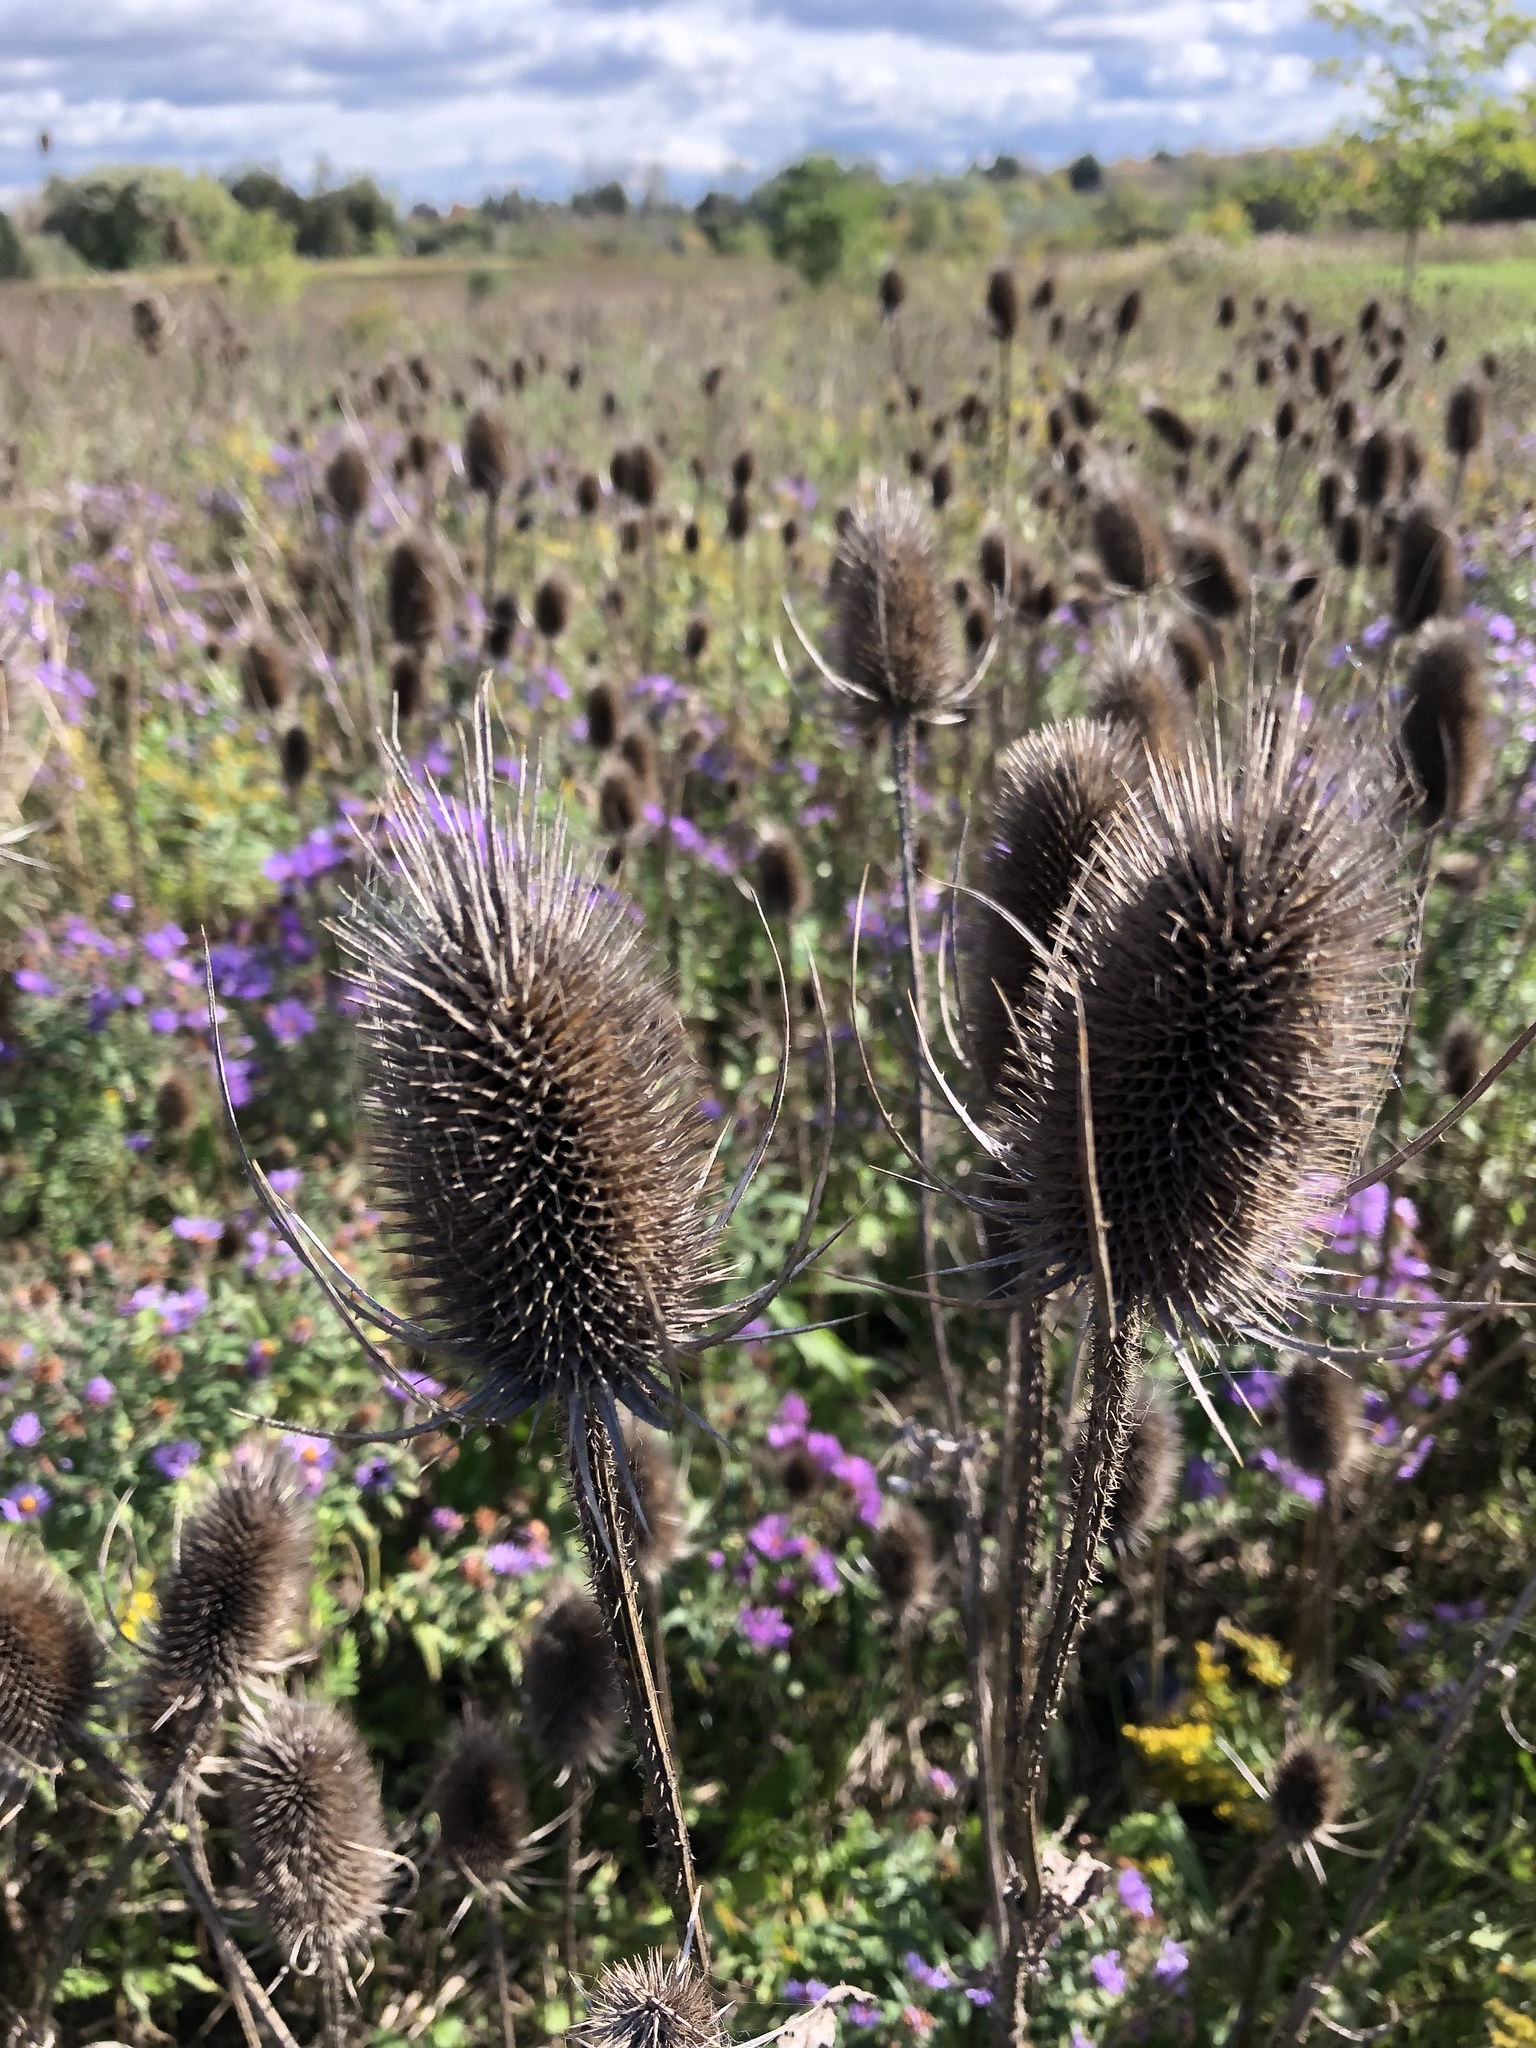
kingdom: Plantae
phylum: Tracheophyta
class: Magnoliopsida
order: Dipsacales
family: Caprifoliaceae
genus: Dipsacus
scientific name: Dipsacus fullonum
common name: Teasel
